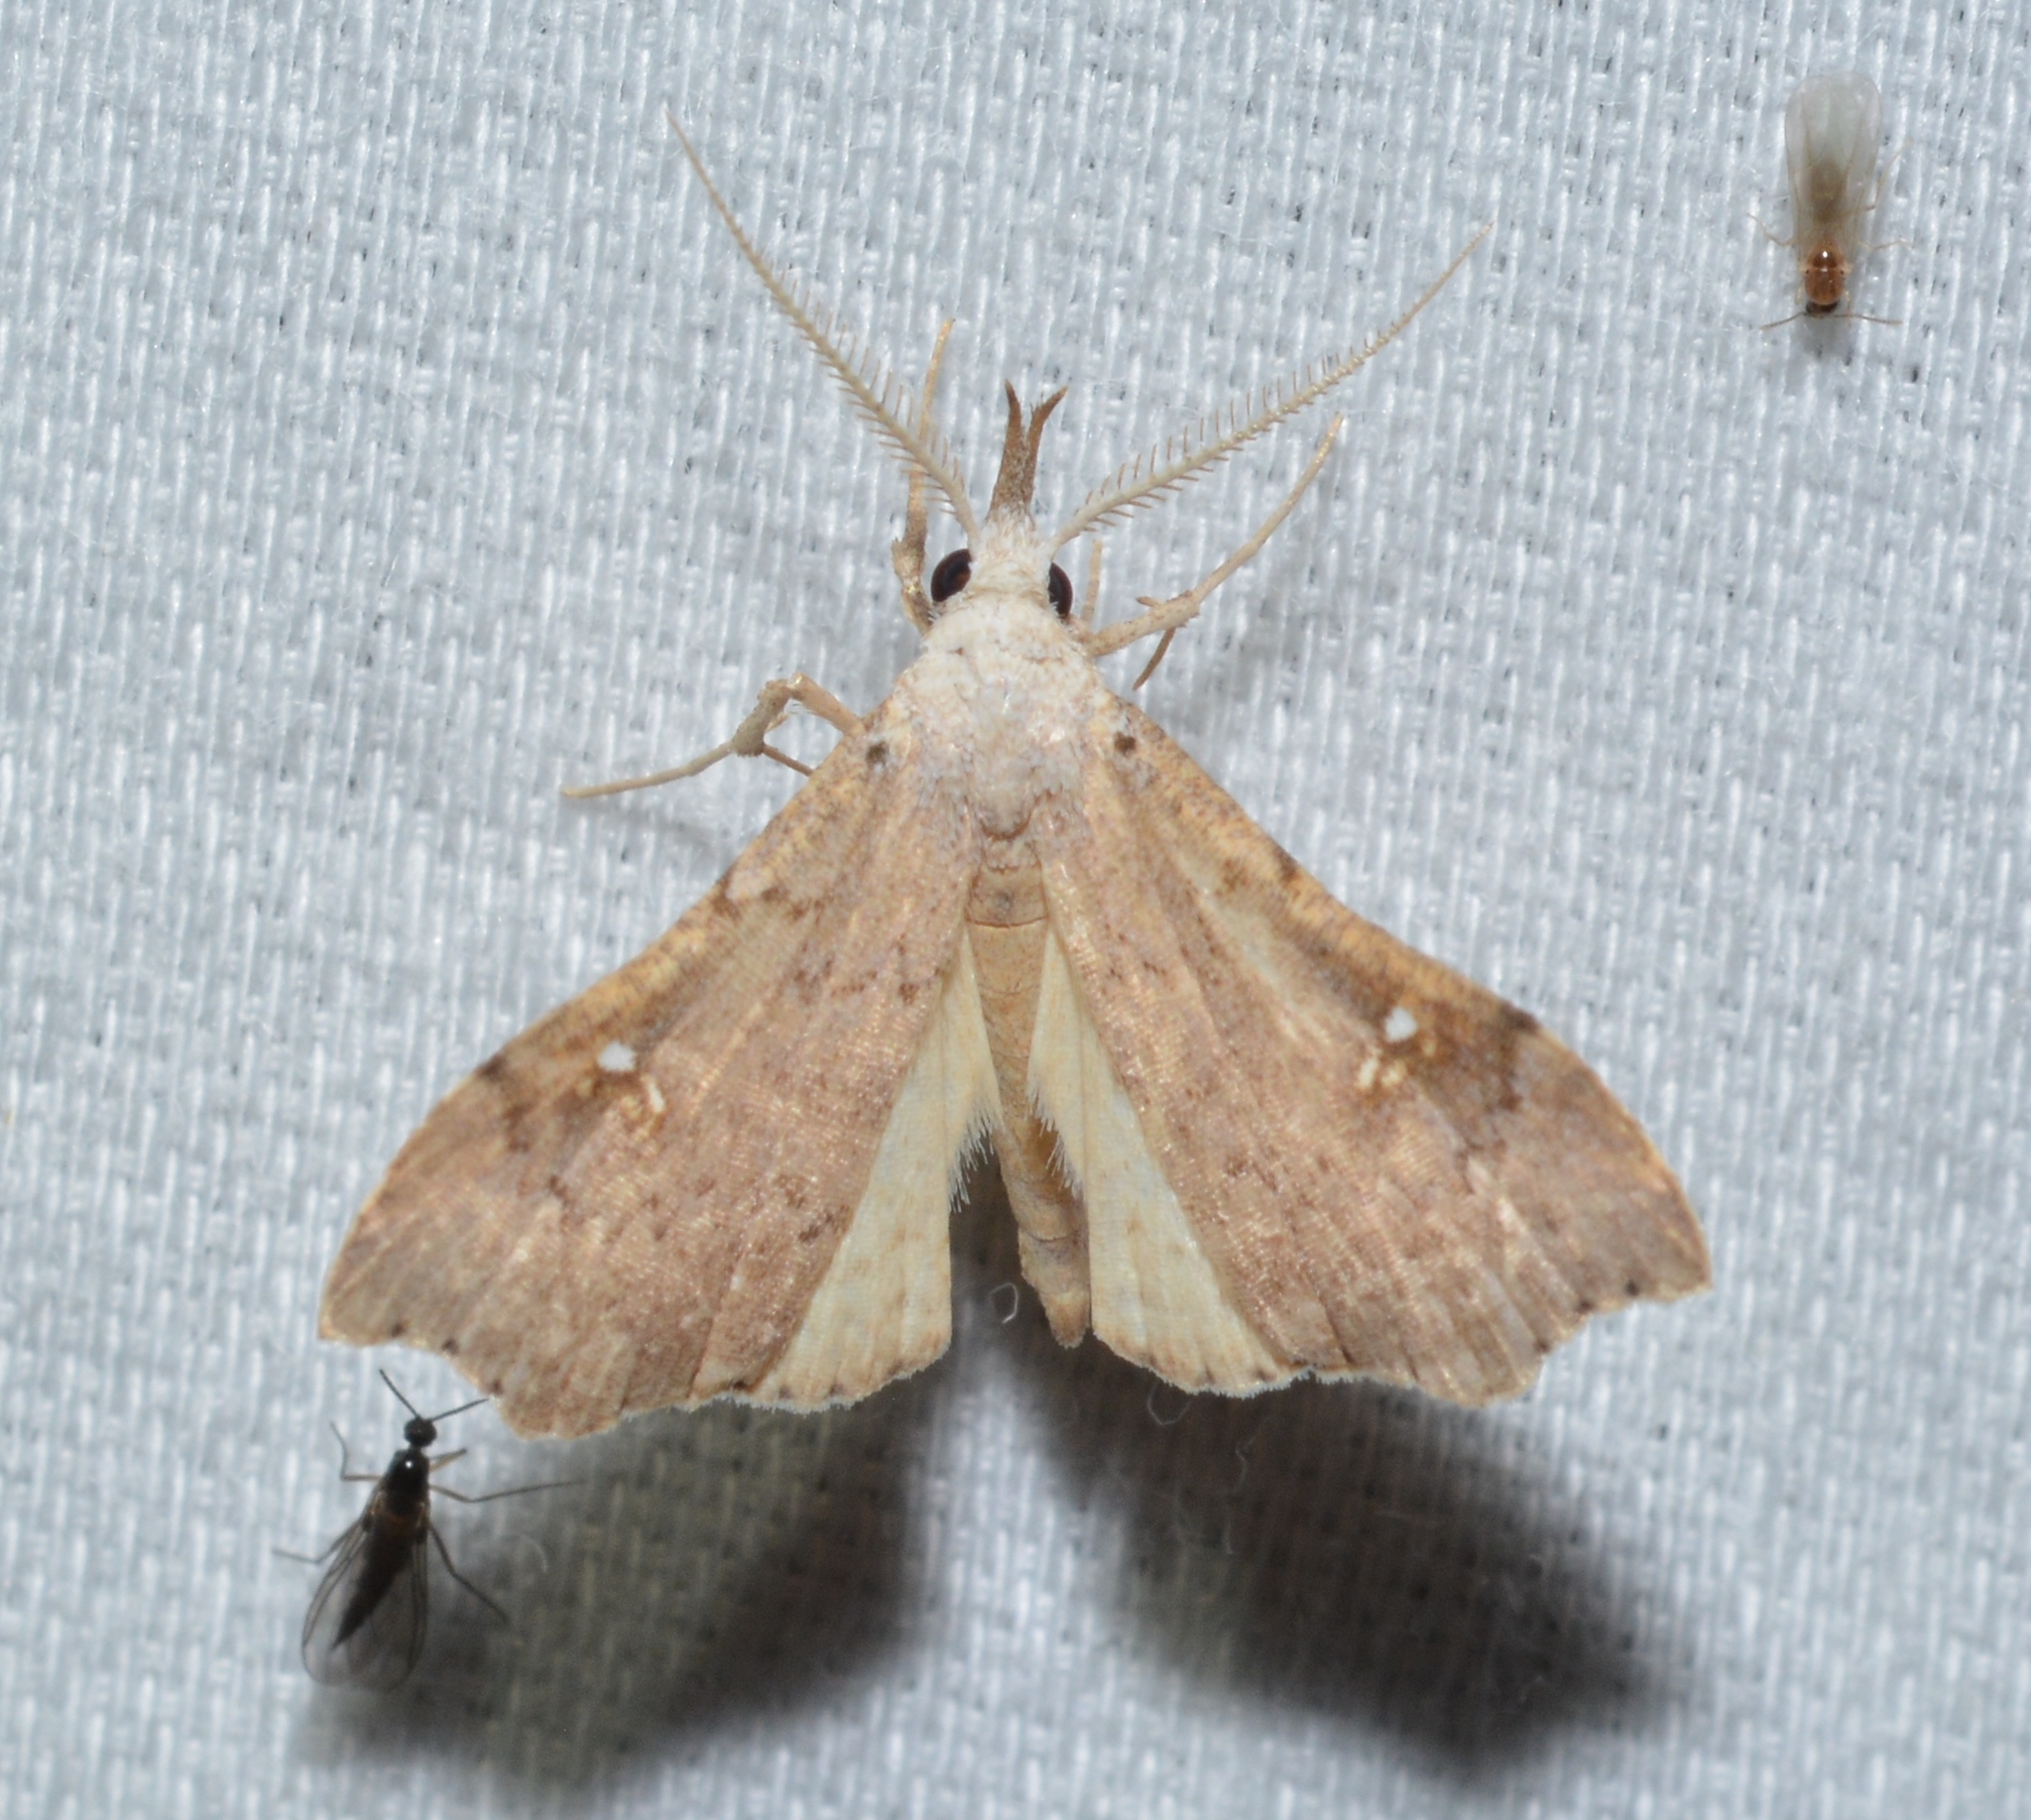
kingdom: Animalia
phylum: Arthropoda
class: Insecta
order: Lepidoptera
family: Erebidae
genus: Redectis
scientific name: Redectis vitrea
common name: White-spotted redectis
